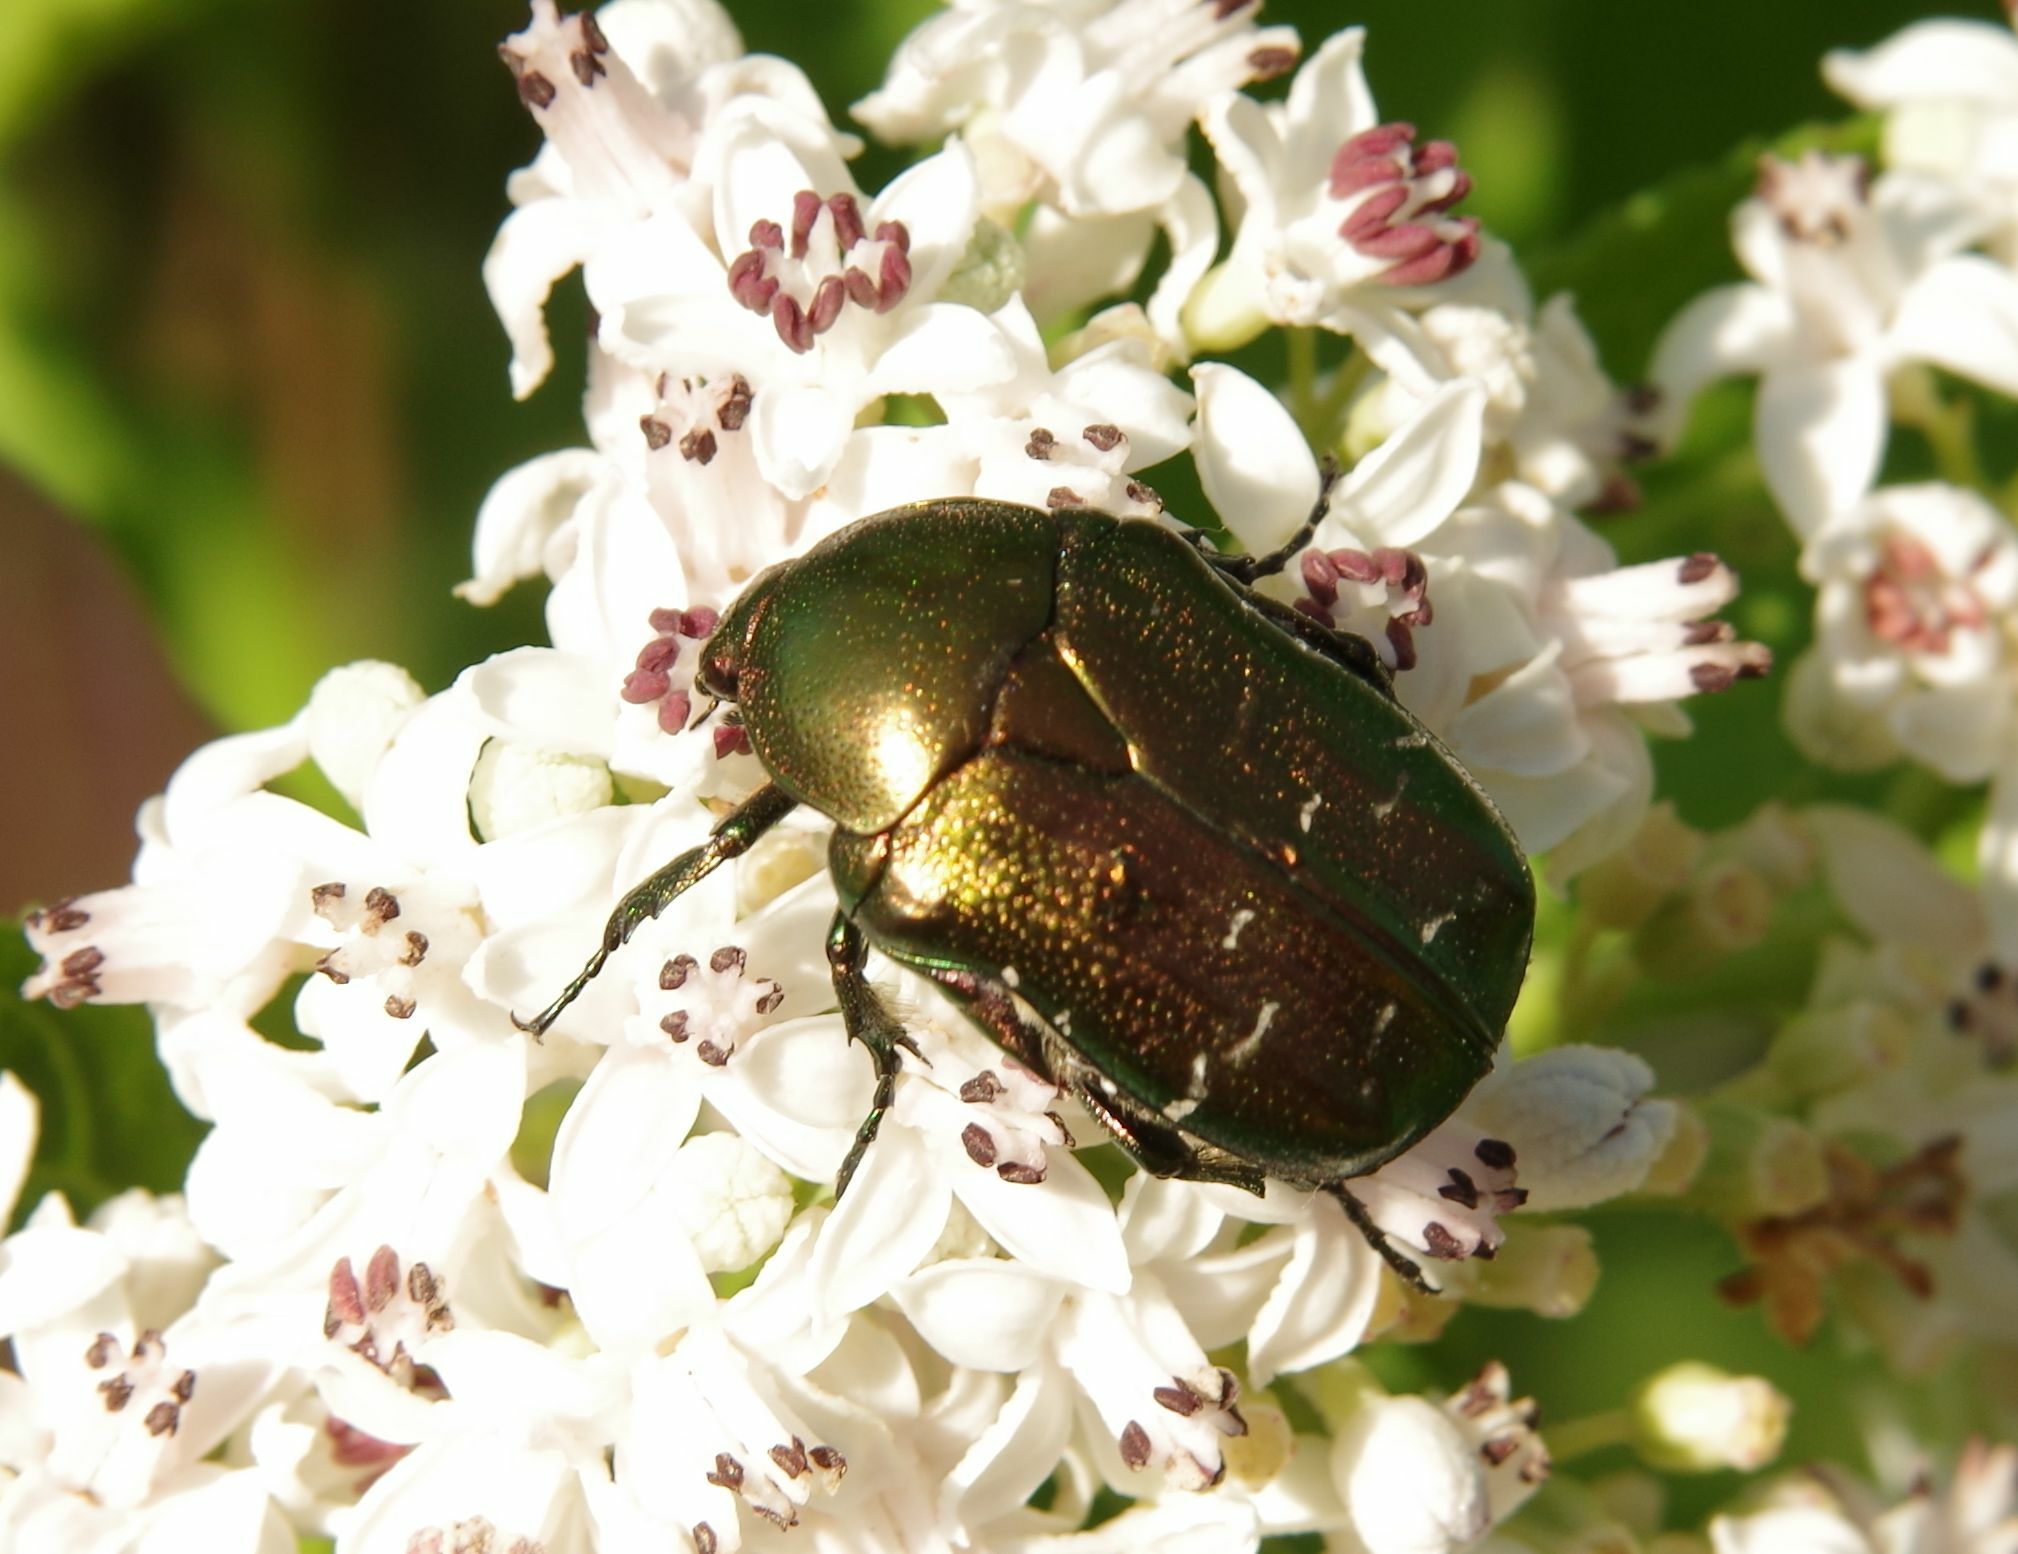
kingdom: Animalia
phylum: Arthropoda
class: Insecta
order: Coleoptera
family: Scarabaeidae
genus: Cetonia
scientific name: Cetonia aurata
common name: Rose chafer
